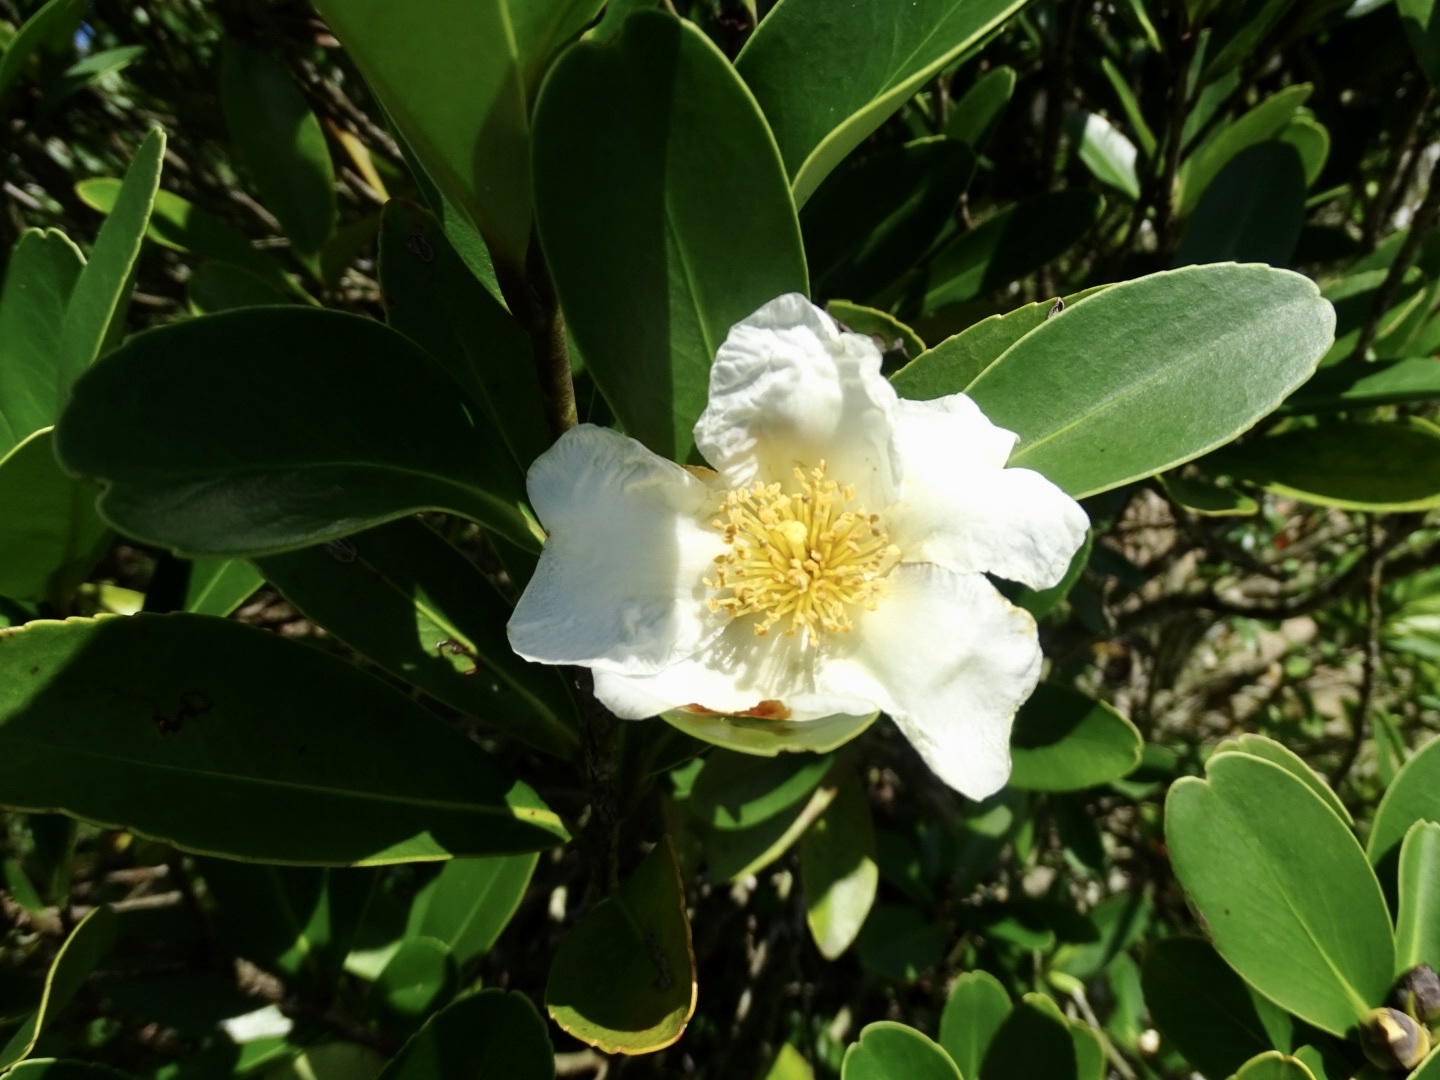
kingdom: Plantae
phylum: Tracheophyta
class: Magnoliopsida
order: Ericales
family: Theaceae
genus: Polyspora
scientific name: Polyspora axillaris
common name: Fried egg tree
